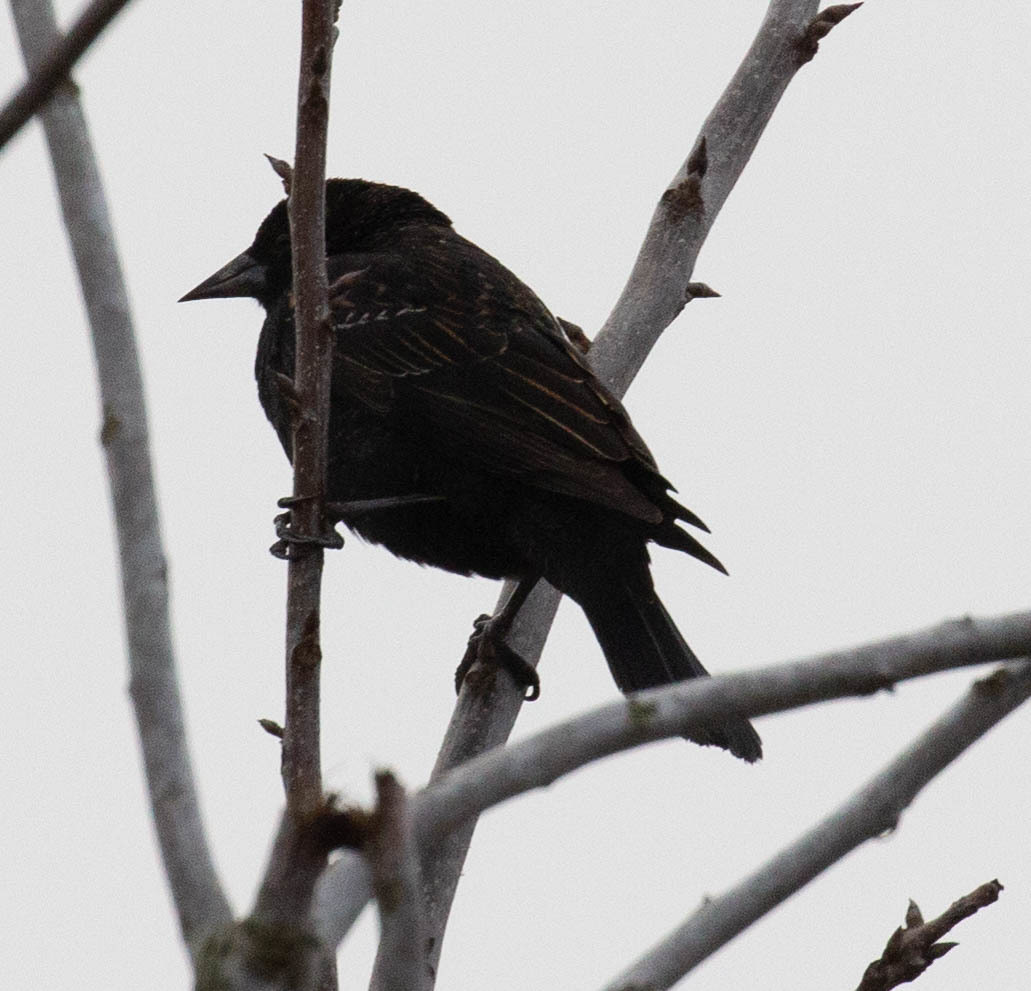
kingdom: Animalia
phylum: Chordata
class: Aves
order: Passeriformes
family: Icteridae
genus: Agelaius
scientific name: Agelaius phoeniceus
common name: Red-winged blackbird
